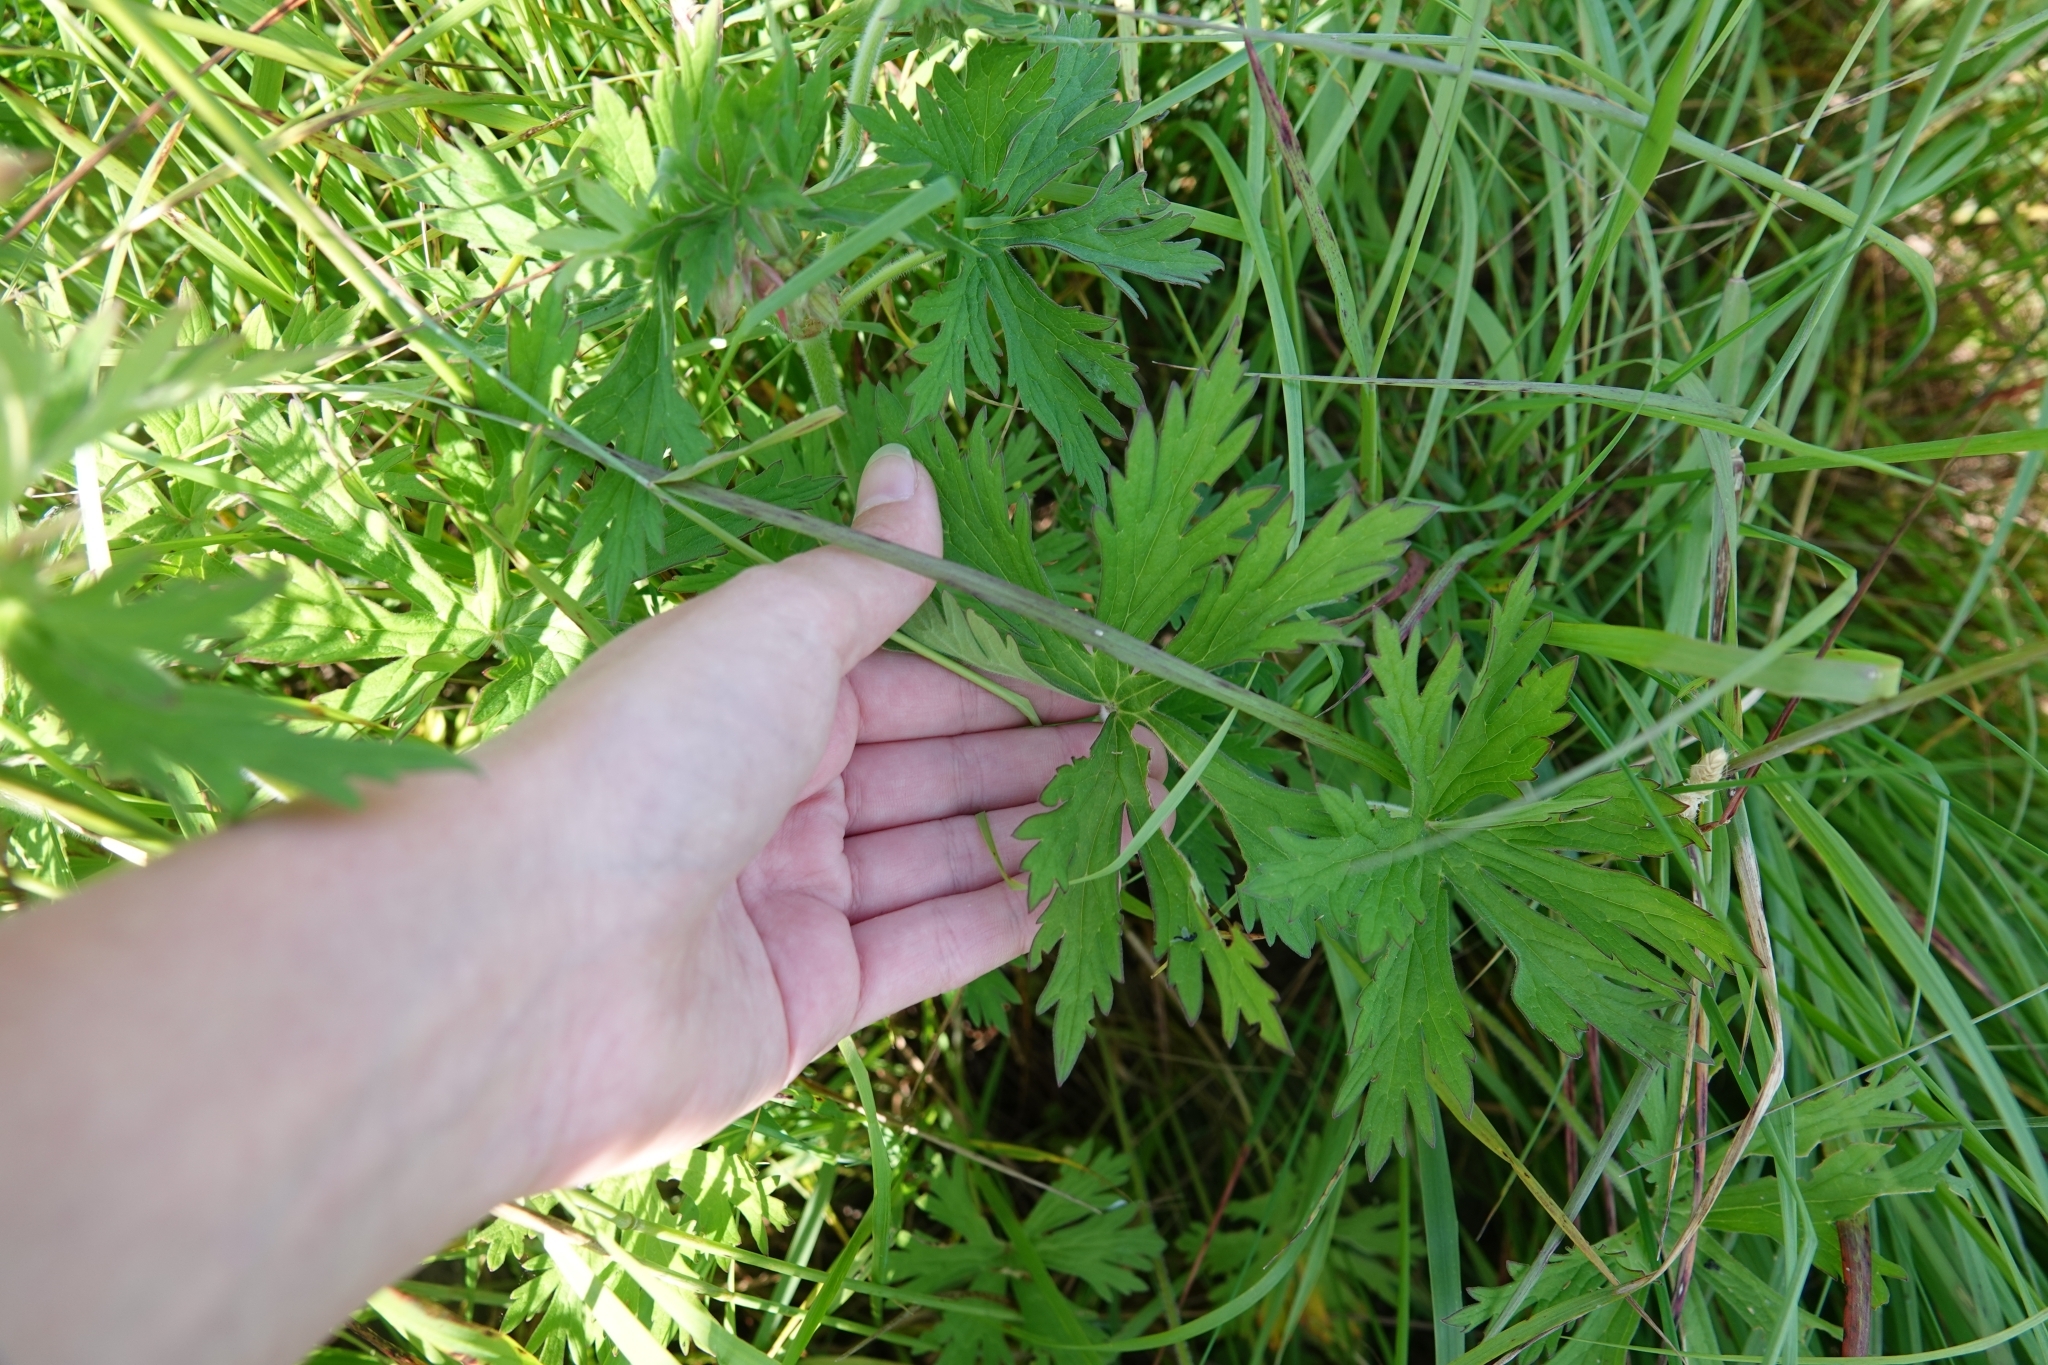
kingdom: Plantae
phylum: Tracheophyta
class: Magnoliopsida
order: Geraniales
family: Geraniaceae
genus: Geranium
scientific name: Geranium pratense
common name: Meadow crane's-bill
